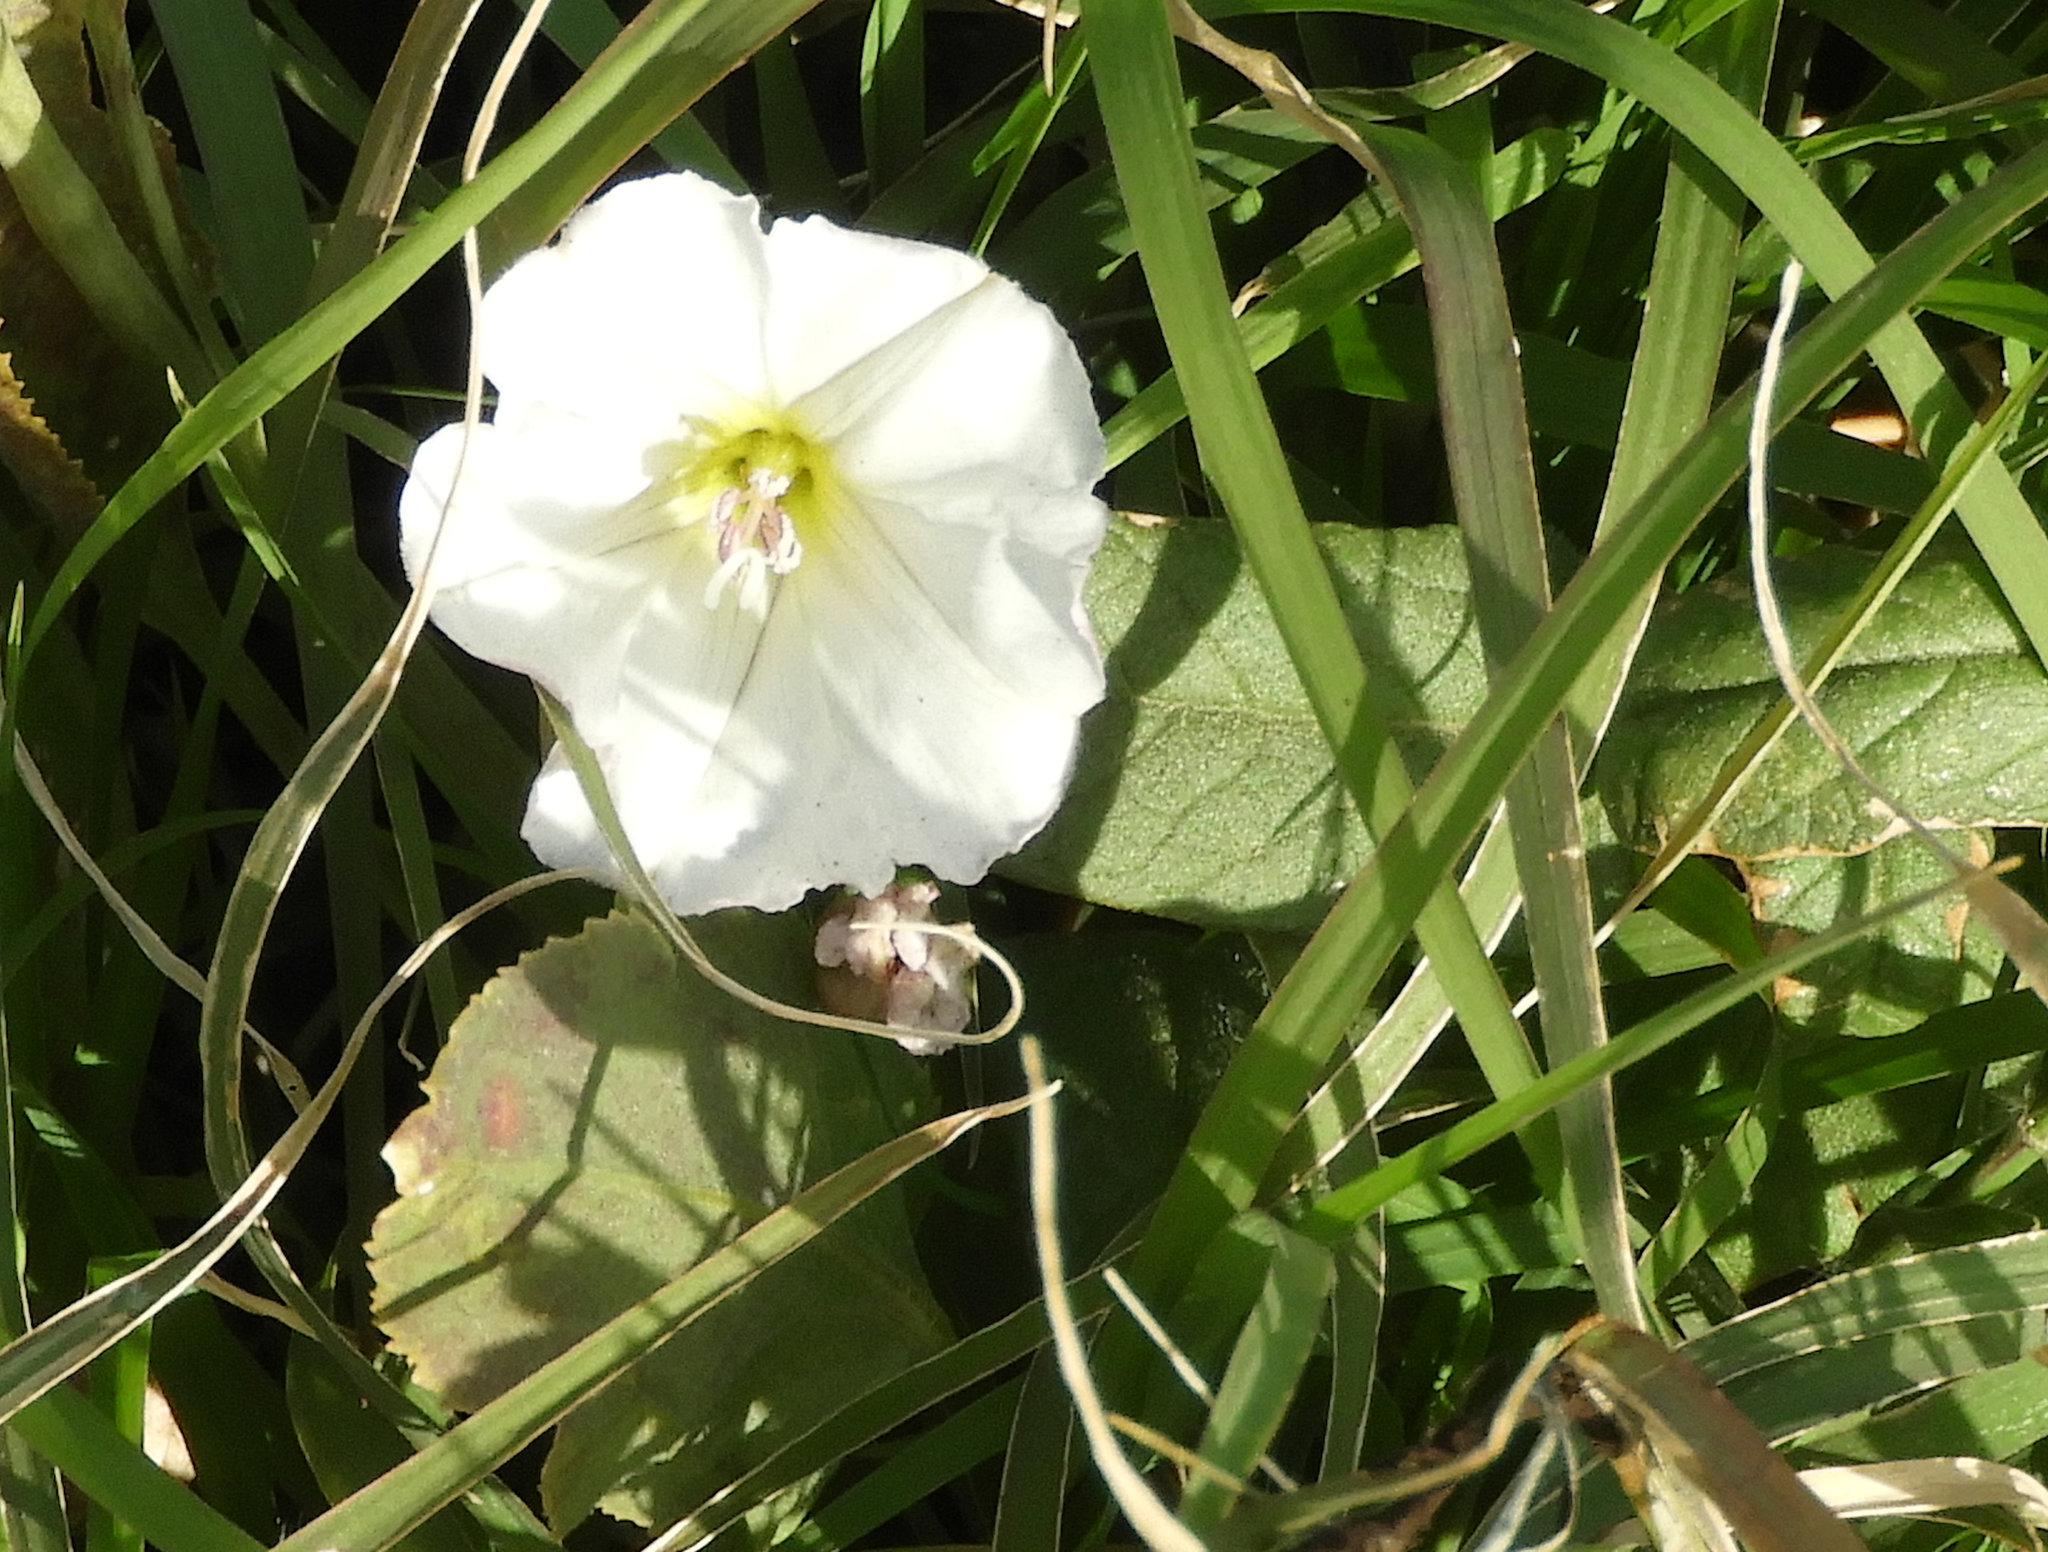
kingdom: Plantae
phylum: Tracheophyta
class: Magnoliopsida
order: Solanales
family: Convolvulaceae
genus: Convolvulus
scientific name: Convolvulus arvensis
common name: Field bindweed
